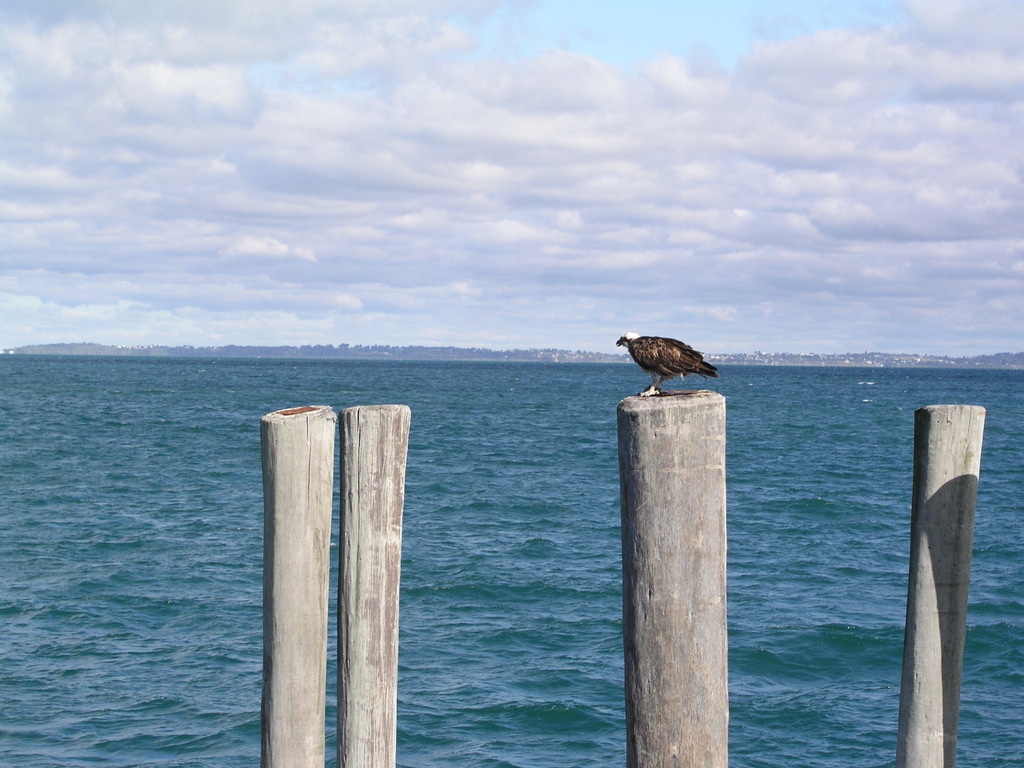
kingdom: Animalia
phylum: Chordata
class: Aves
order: Accipitriformes
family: Pandionidae
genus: Pandion
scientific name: Pandion haliaetus
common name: Osprey
